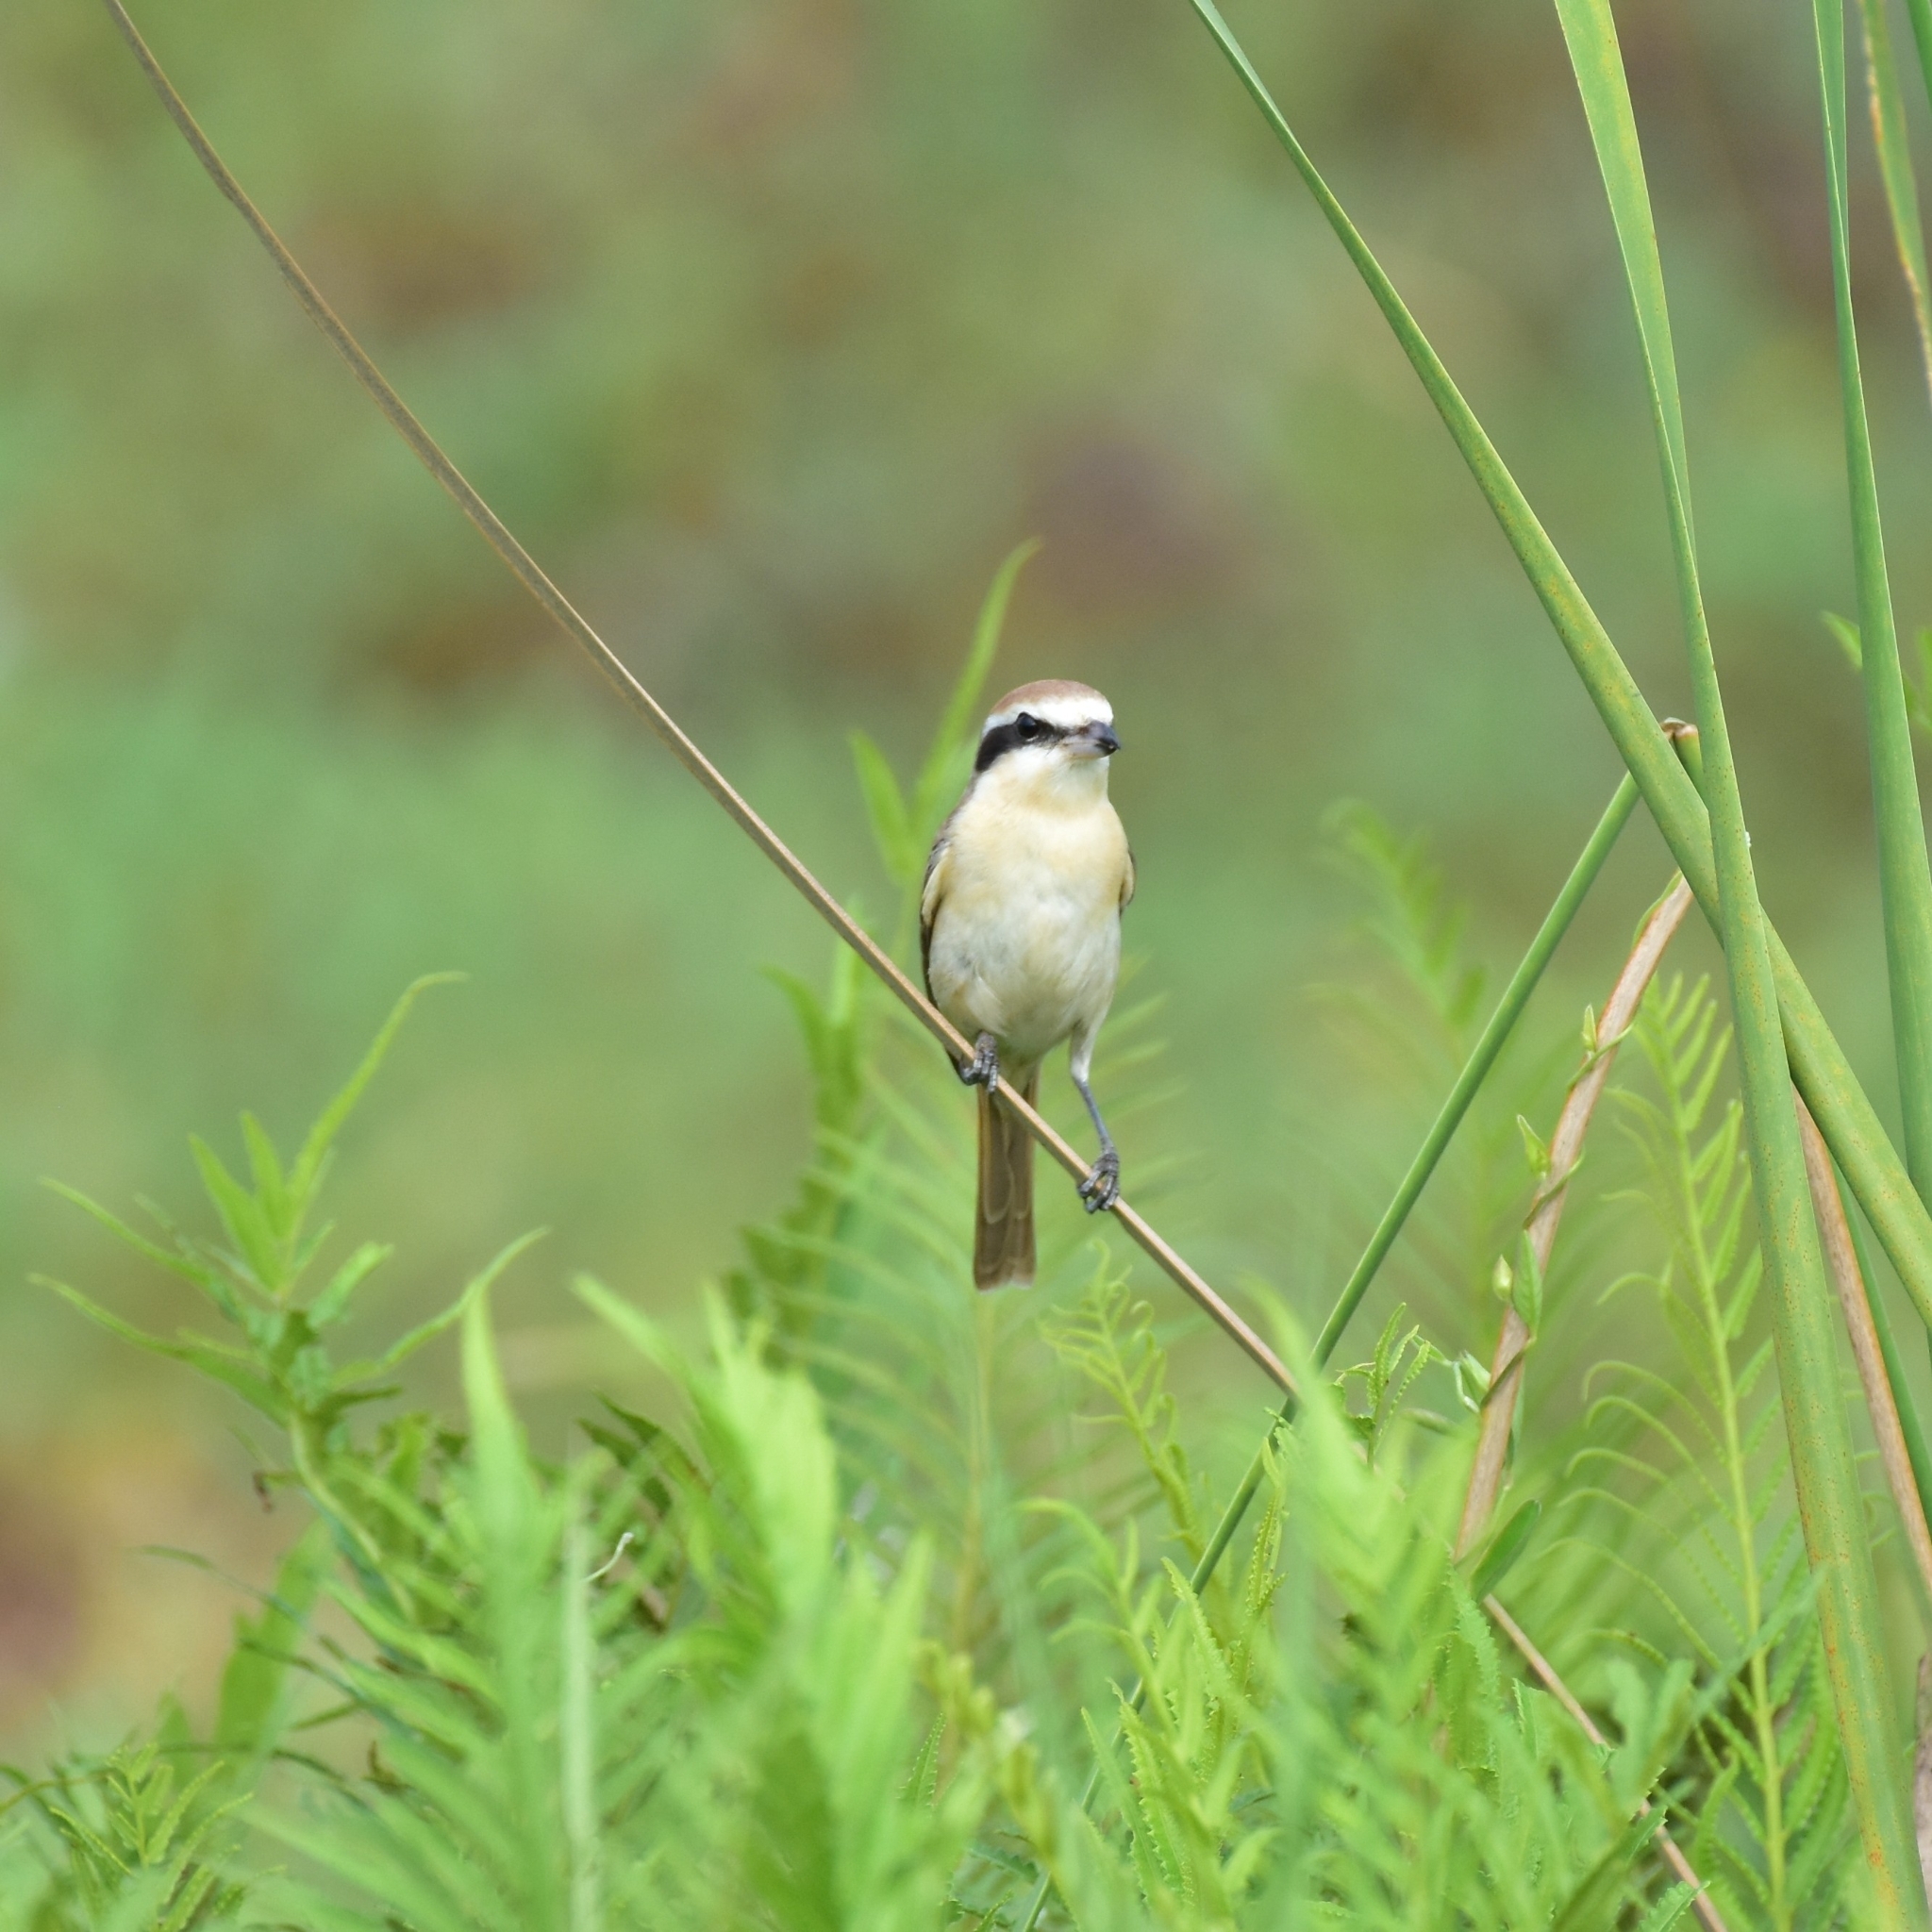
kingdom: Animalia
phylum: Chordata
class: Aves
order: Passeriformes
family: Laniidae
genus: Lanius
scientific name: Lanius cristatus
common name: Brown shrike
